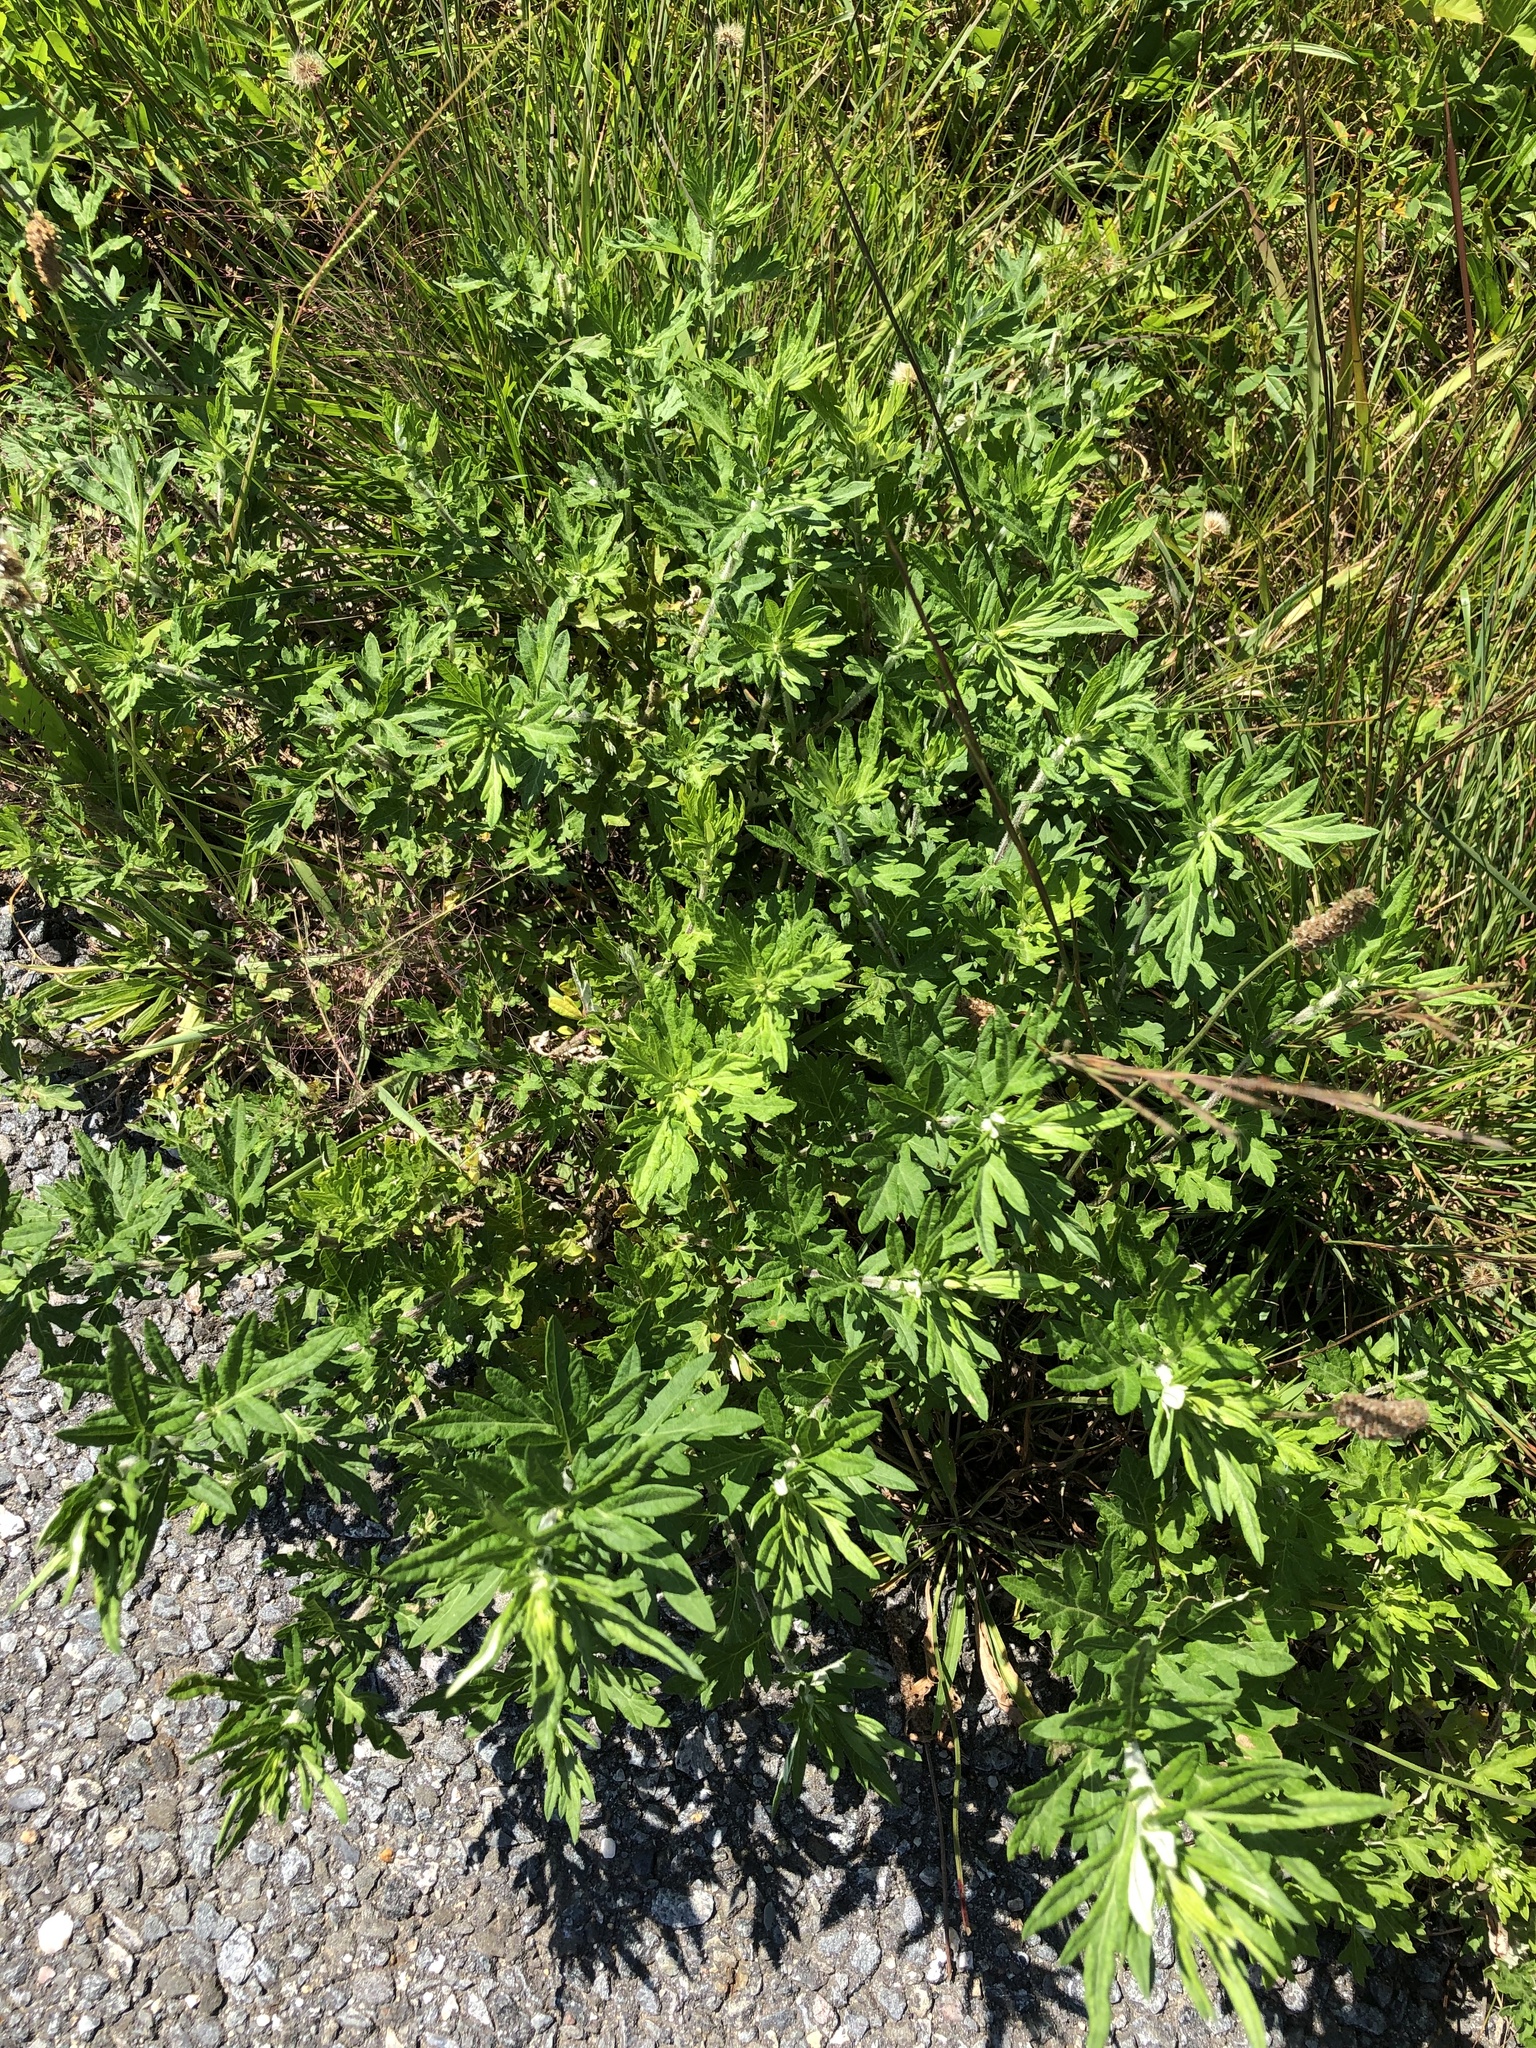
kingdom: Plantae
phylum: Tracheophyta
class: Magnoliopsida
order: Asterales
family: Asteraceae
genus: Artemisia
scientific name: Artemisia vulgaris
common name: Mugwort
